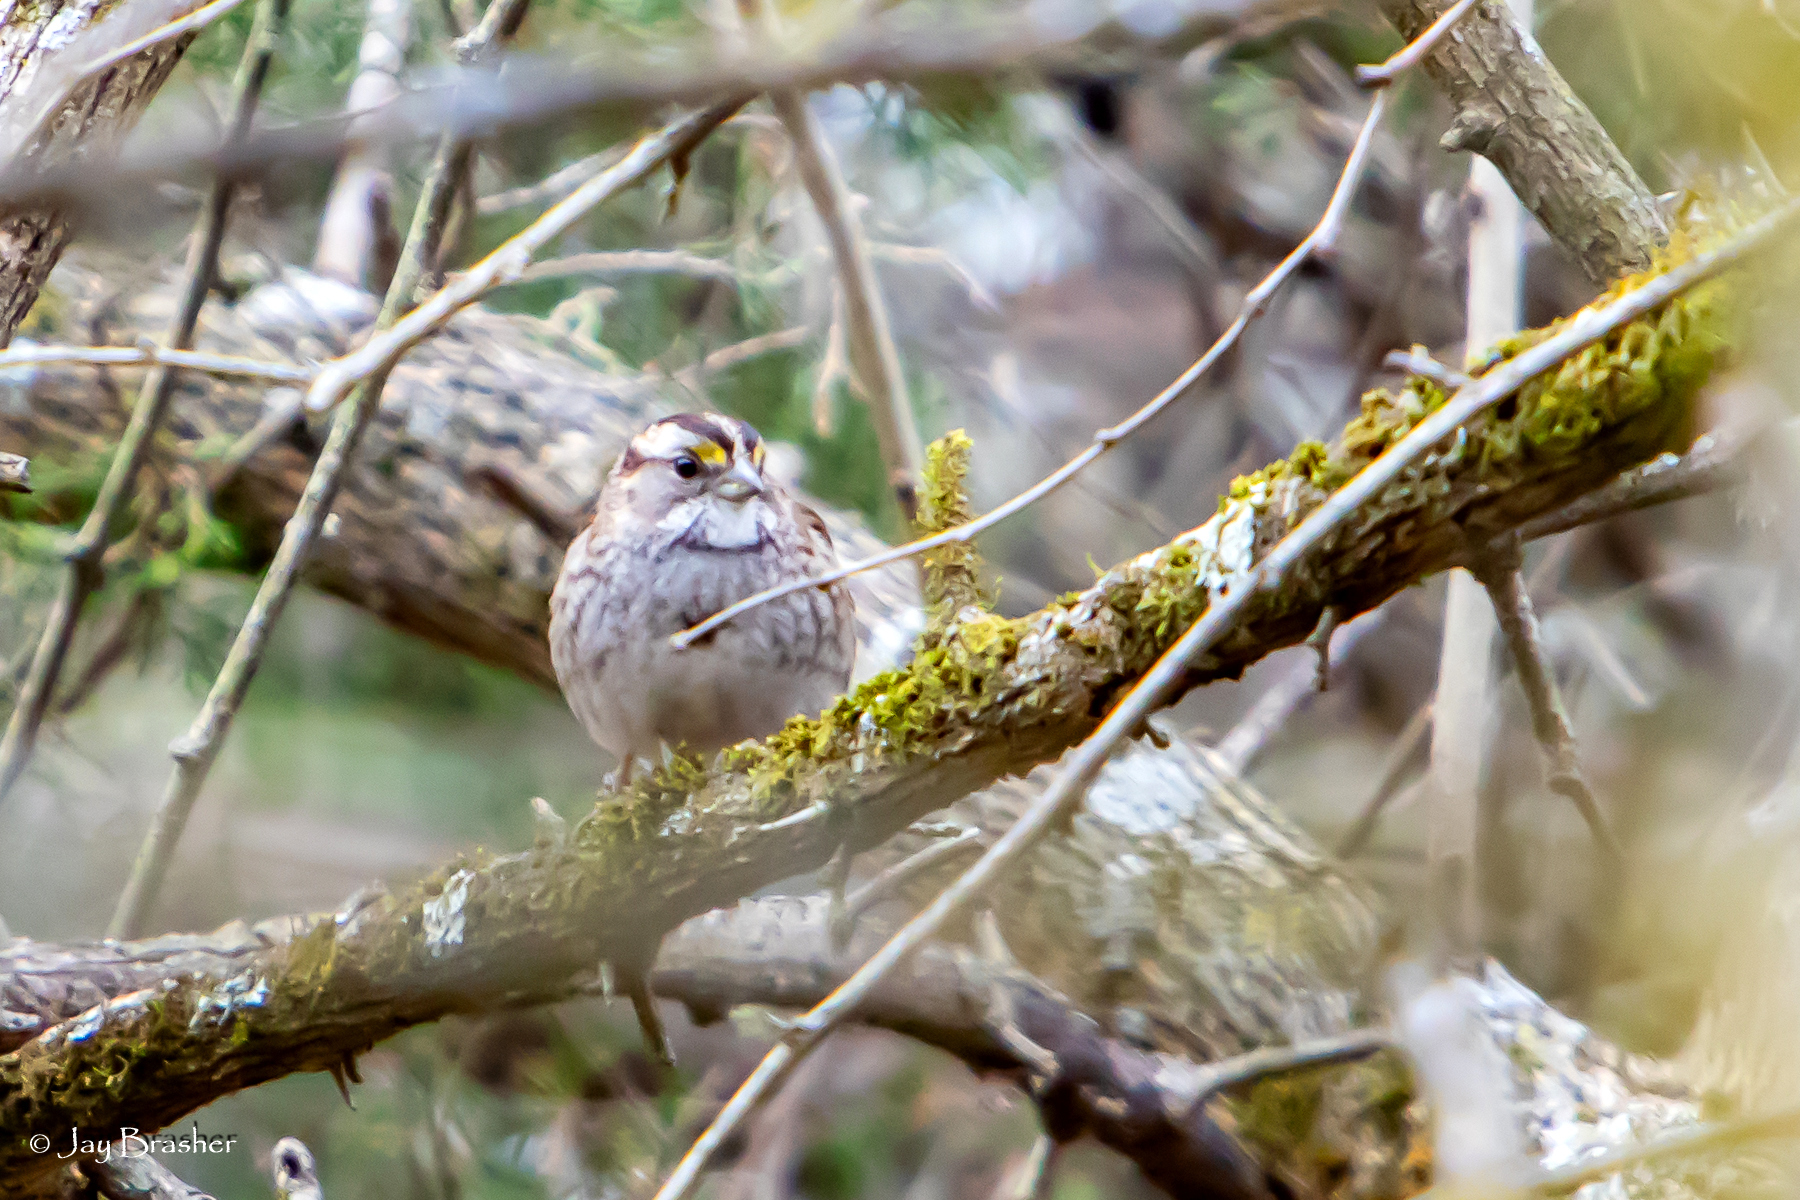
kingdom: Animalia
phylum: Chordata
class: Aves
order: Passeriformes
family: Passerellidae
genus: Zonotrichia
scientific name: Zonotrichia albicollis
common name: White-throated sparrow
